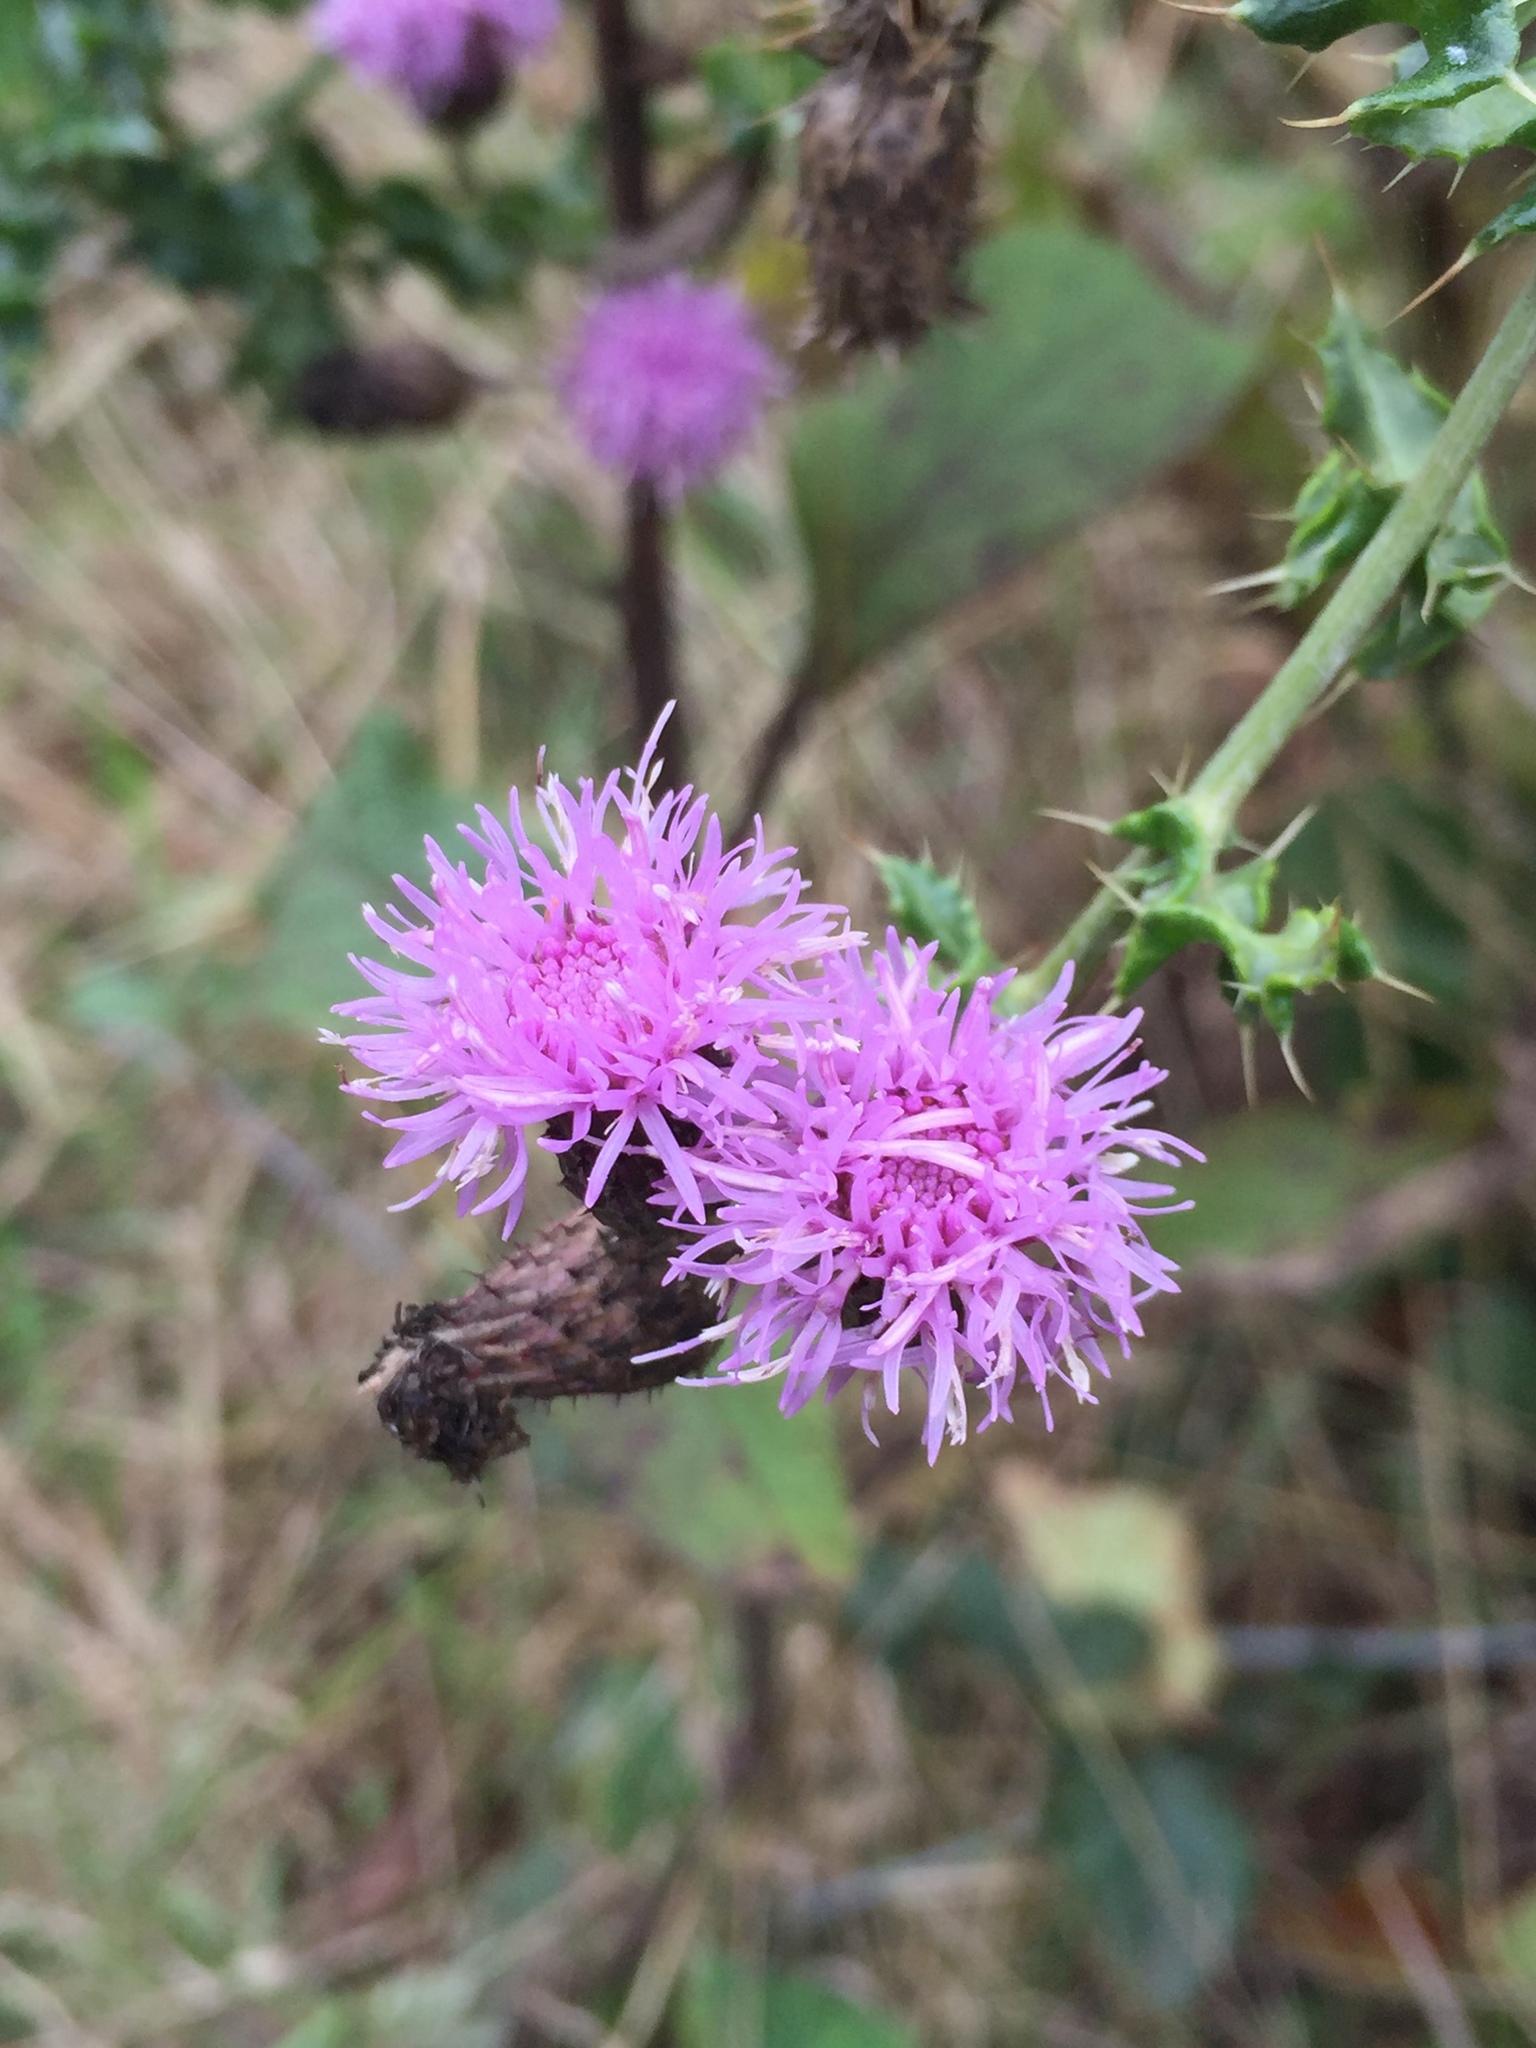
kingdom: Plantae
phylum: Tracheophyta
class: Magnoliopsida
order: Asterales
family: Asteraceae
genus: Cirsium
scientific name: Cirsium arvense
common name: Creeping thistle
